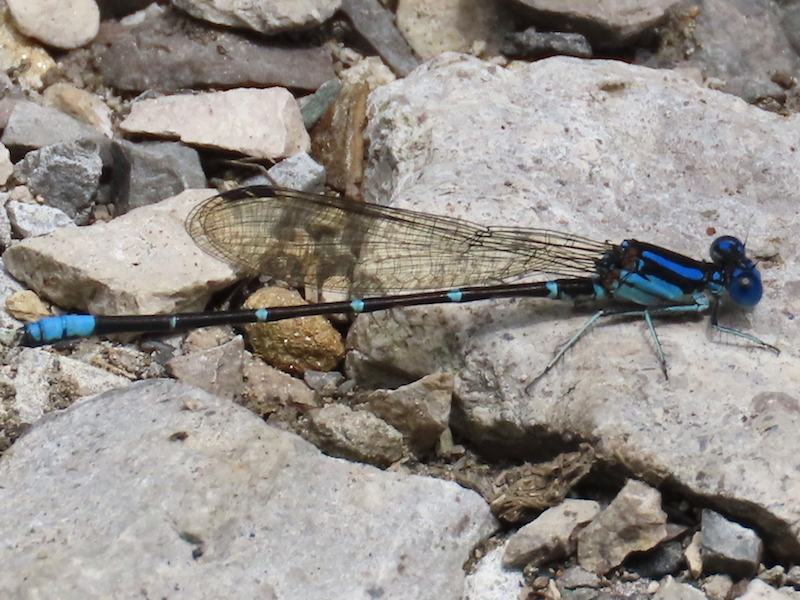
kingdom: Animalia
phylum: Arthropoda
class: Insecta
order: Odonata
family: Coenagrionidae
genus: Argia
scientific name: Argia sedula
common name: Blue-ringed dancer
